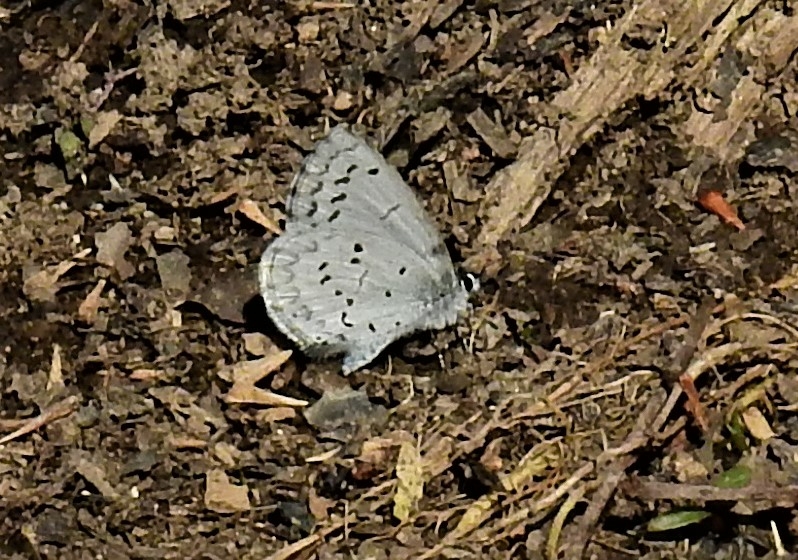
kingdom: Animalia
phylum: Arthropoda
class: Insecta
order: Lepidoptera
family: Lycaenidae
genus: Celastrina
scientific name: Celastrina ladon
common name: Spring azure
